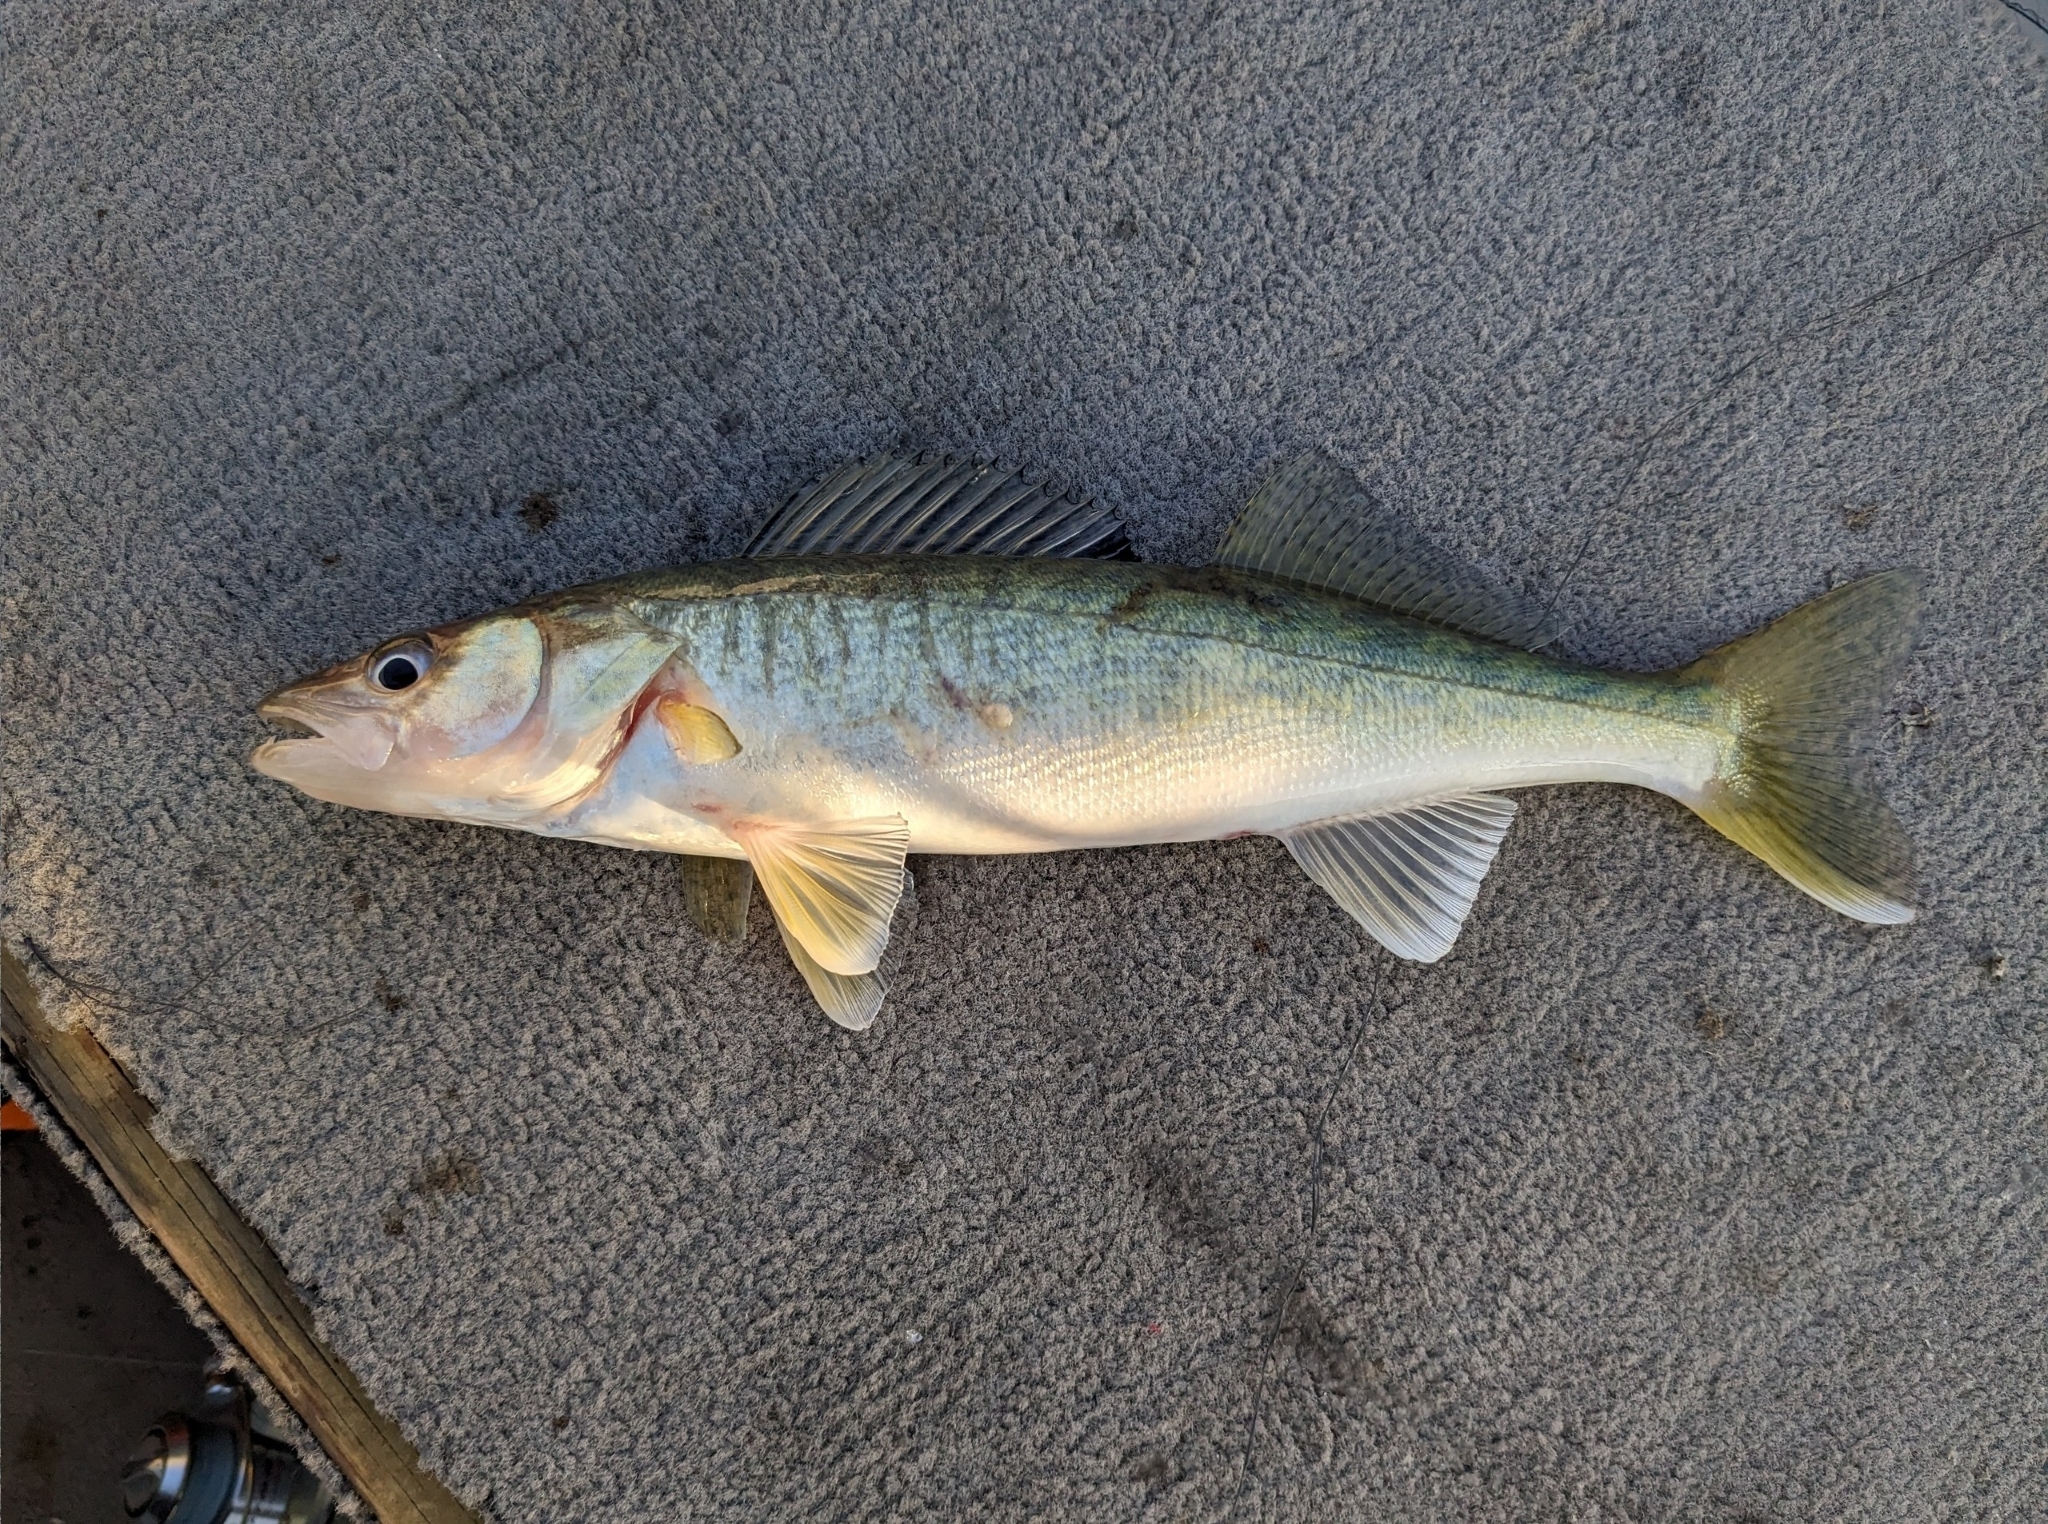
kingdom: Animalia
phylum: Chordata
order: Perciformes
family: Percidae
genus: Sander
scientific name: Sander vitreus
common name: Walleye
